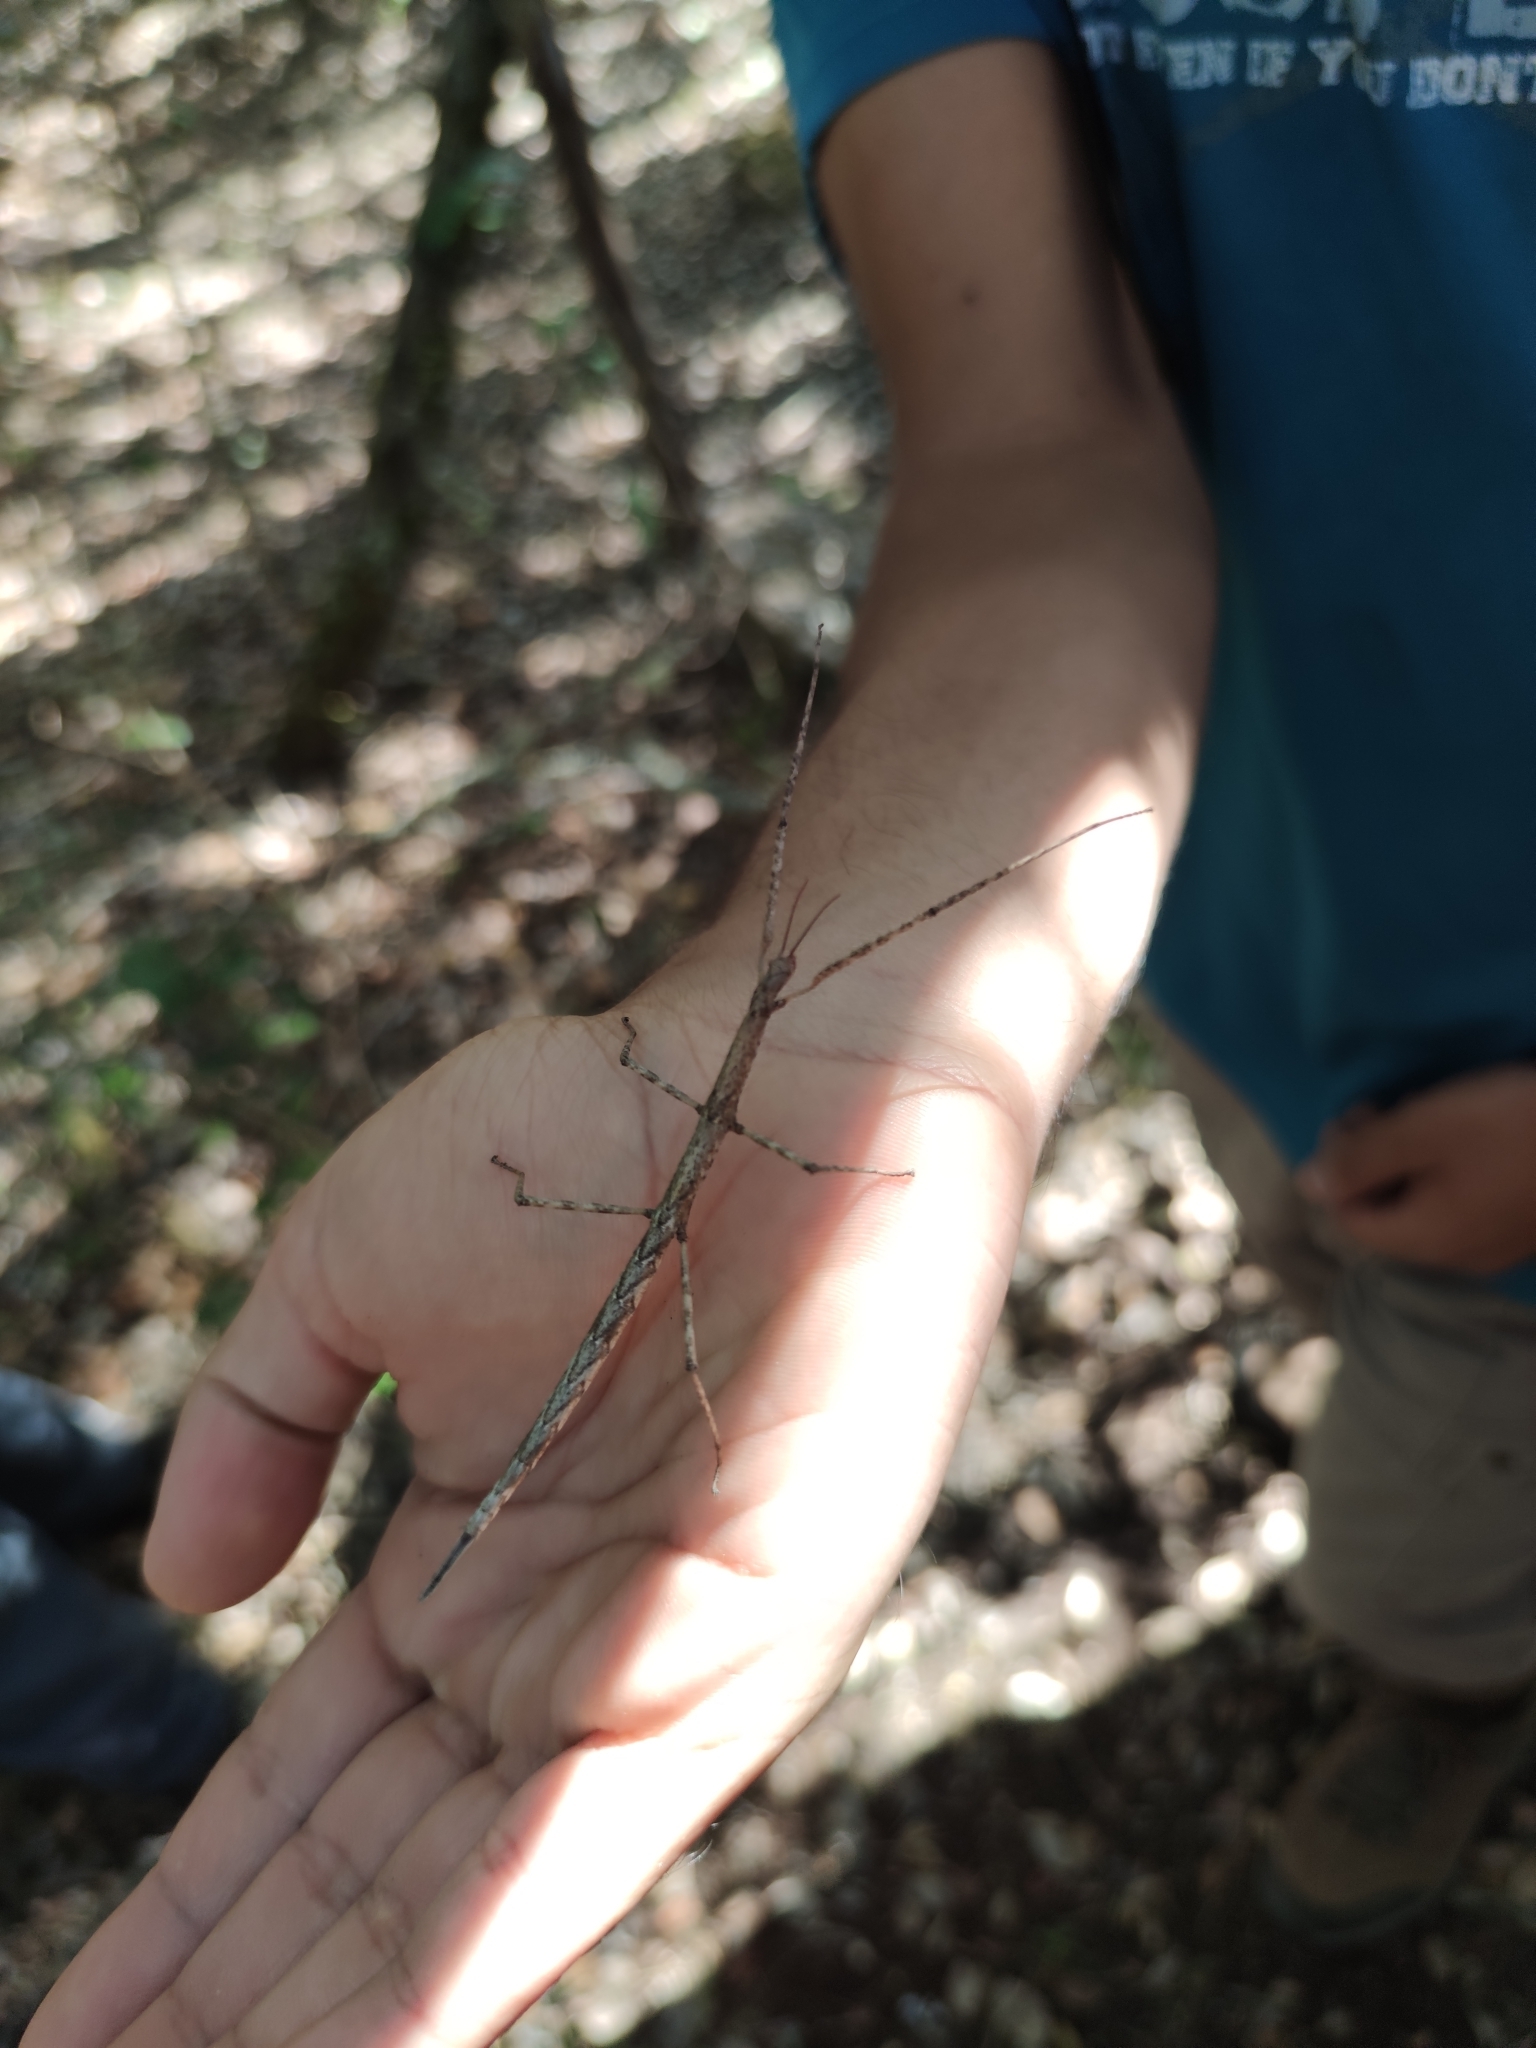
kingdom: Animalia
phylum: Arthropoda
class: Insecta
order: Phasmida
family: Bacillidae
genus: Phalces
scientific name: Phalces brevis
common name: Cape stick insect
